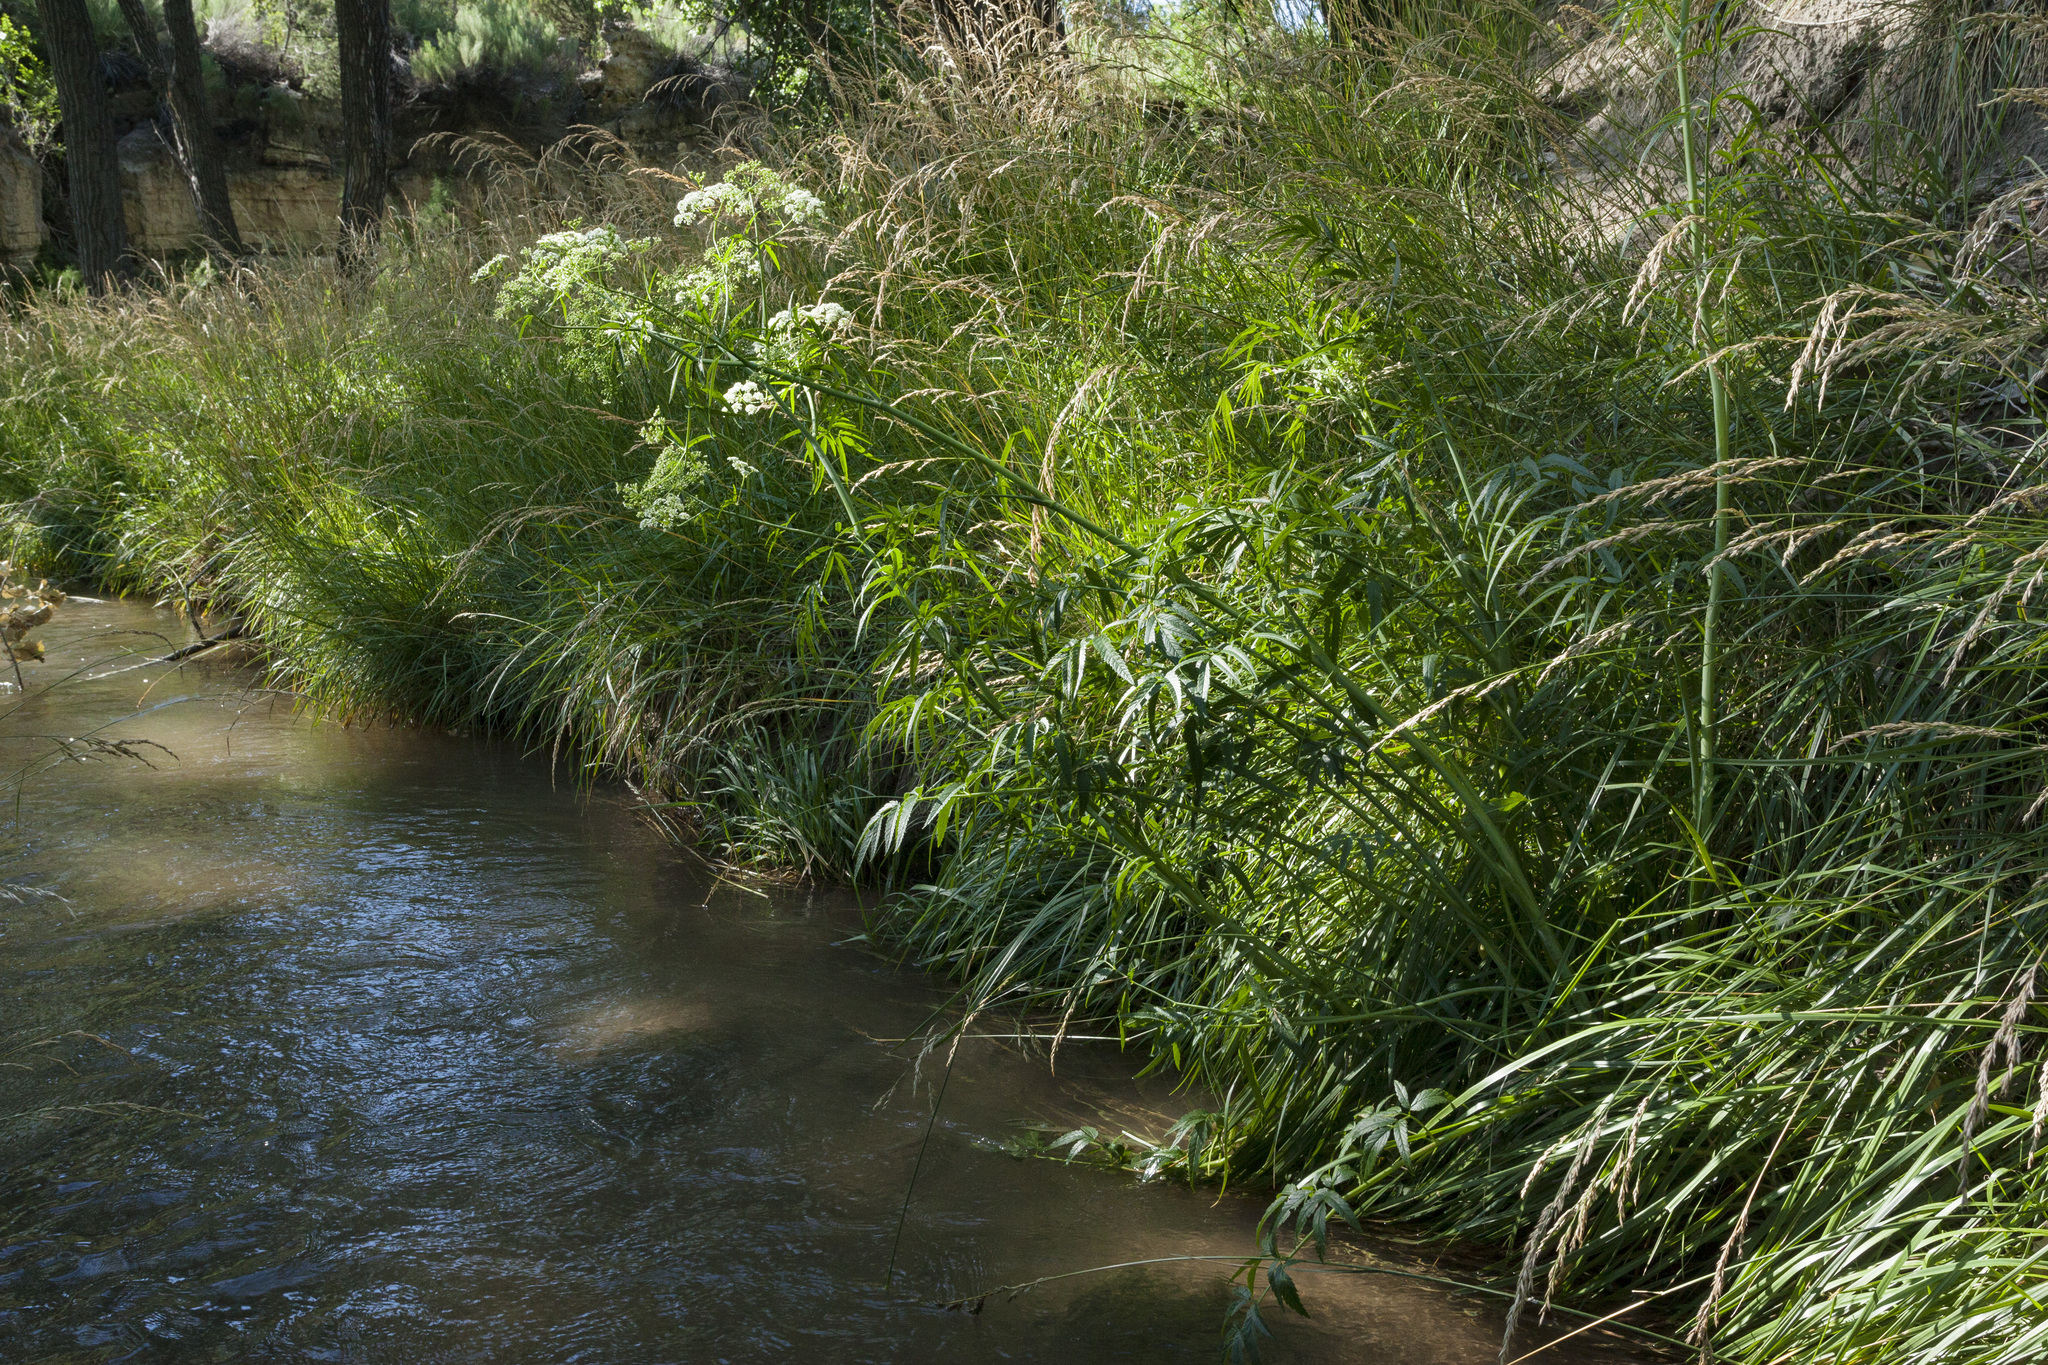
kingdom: Plantae
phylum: Tracheophyta
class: Magnoliopsida
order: Apiales
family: Apiaceae
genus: Cicuta
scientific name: Cicuta maculata
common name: Spotted cowbane
